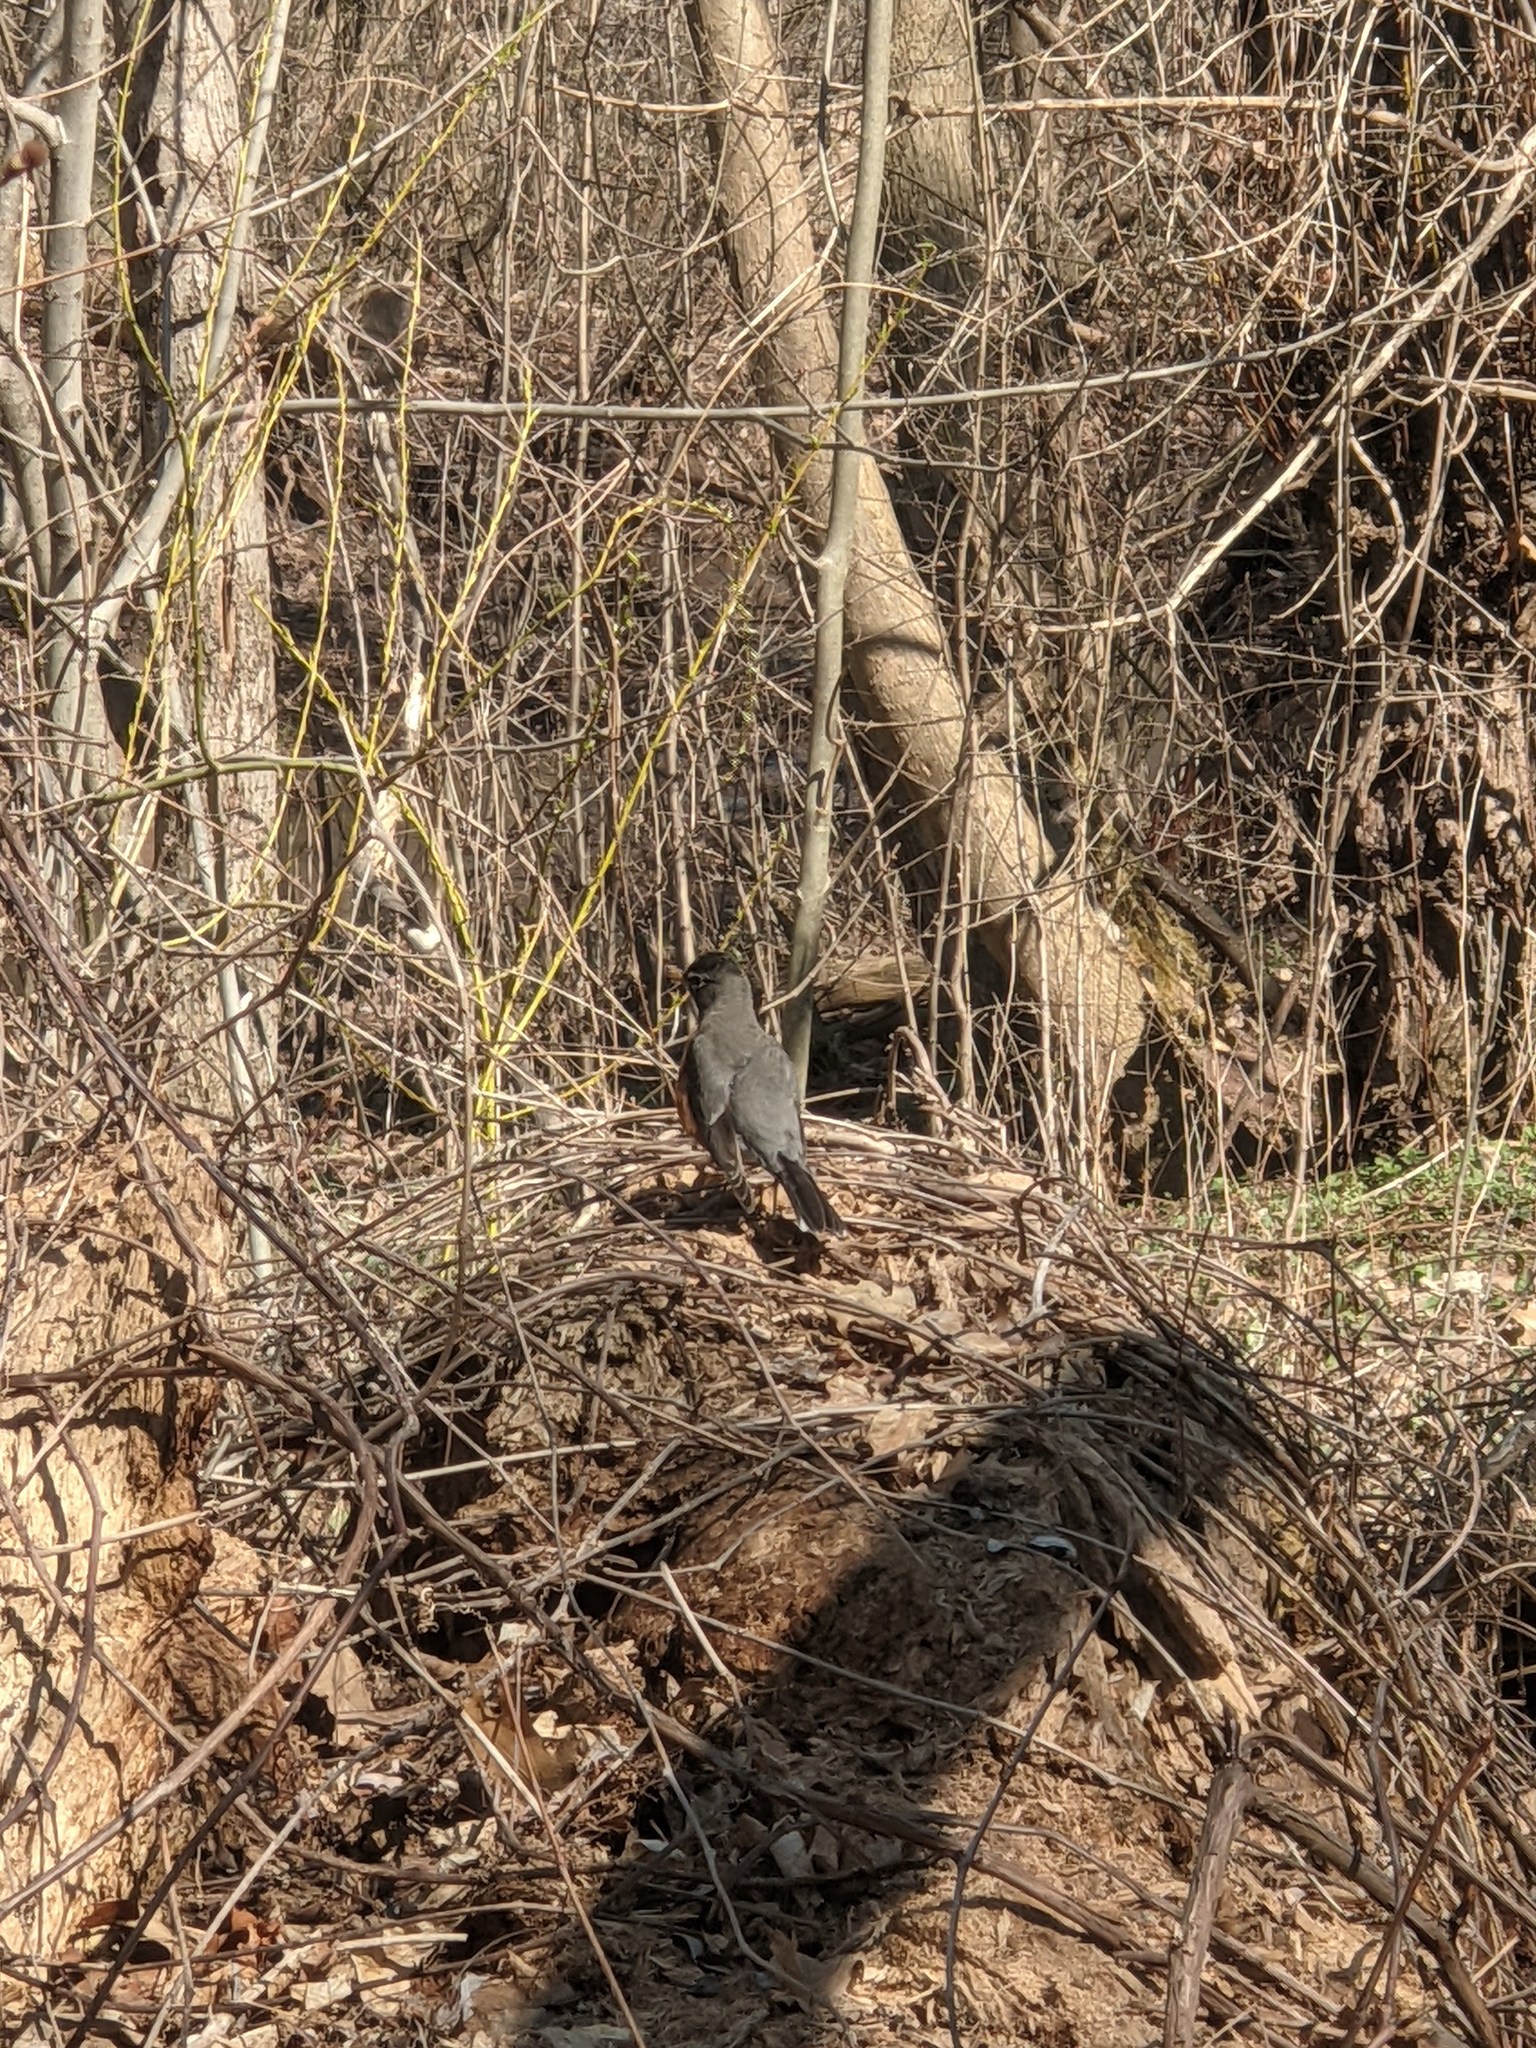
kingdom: Animalia
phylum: Chordata
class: Aves
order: Passeriformes
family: Turdidae
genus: Turdus
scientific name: Turdus migratorius
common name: American robin
